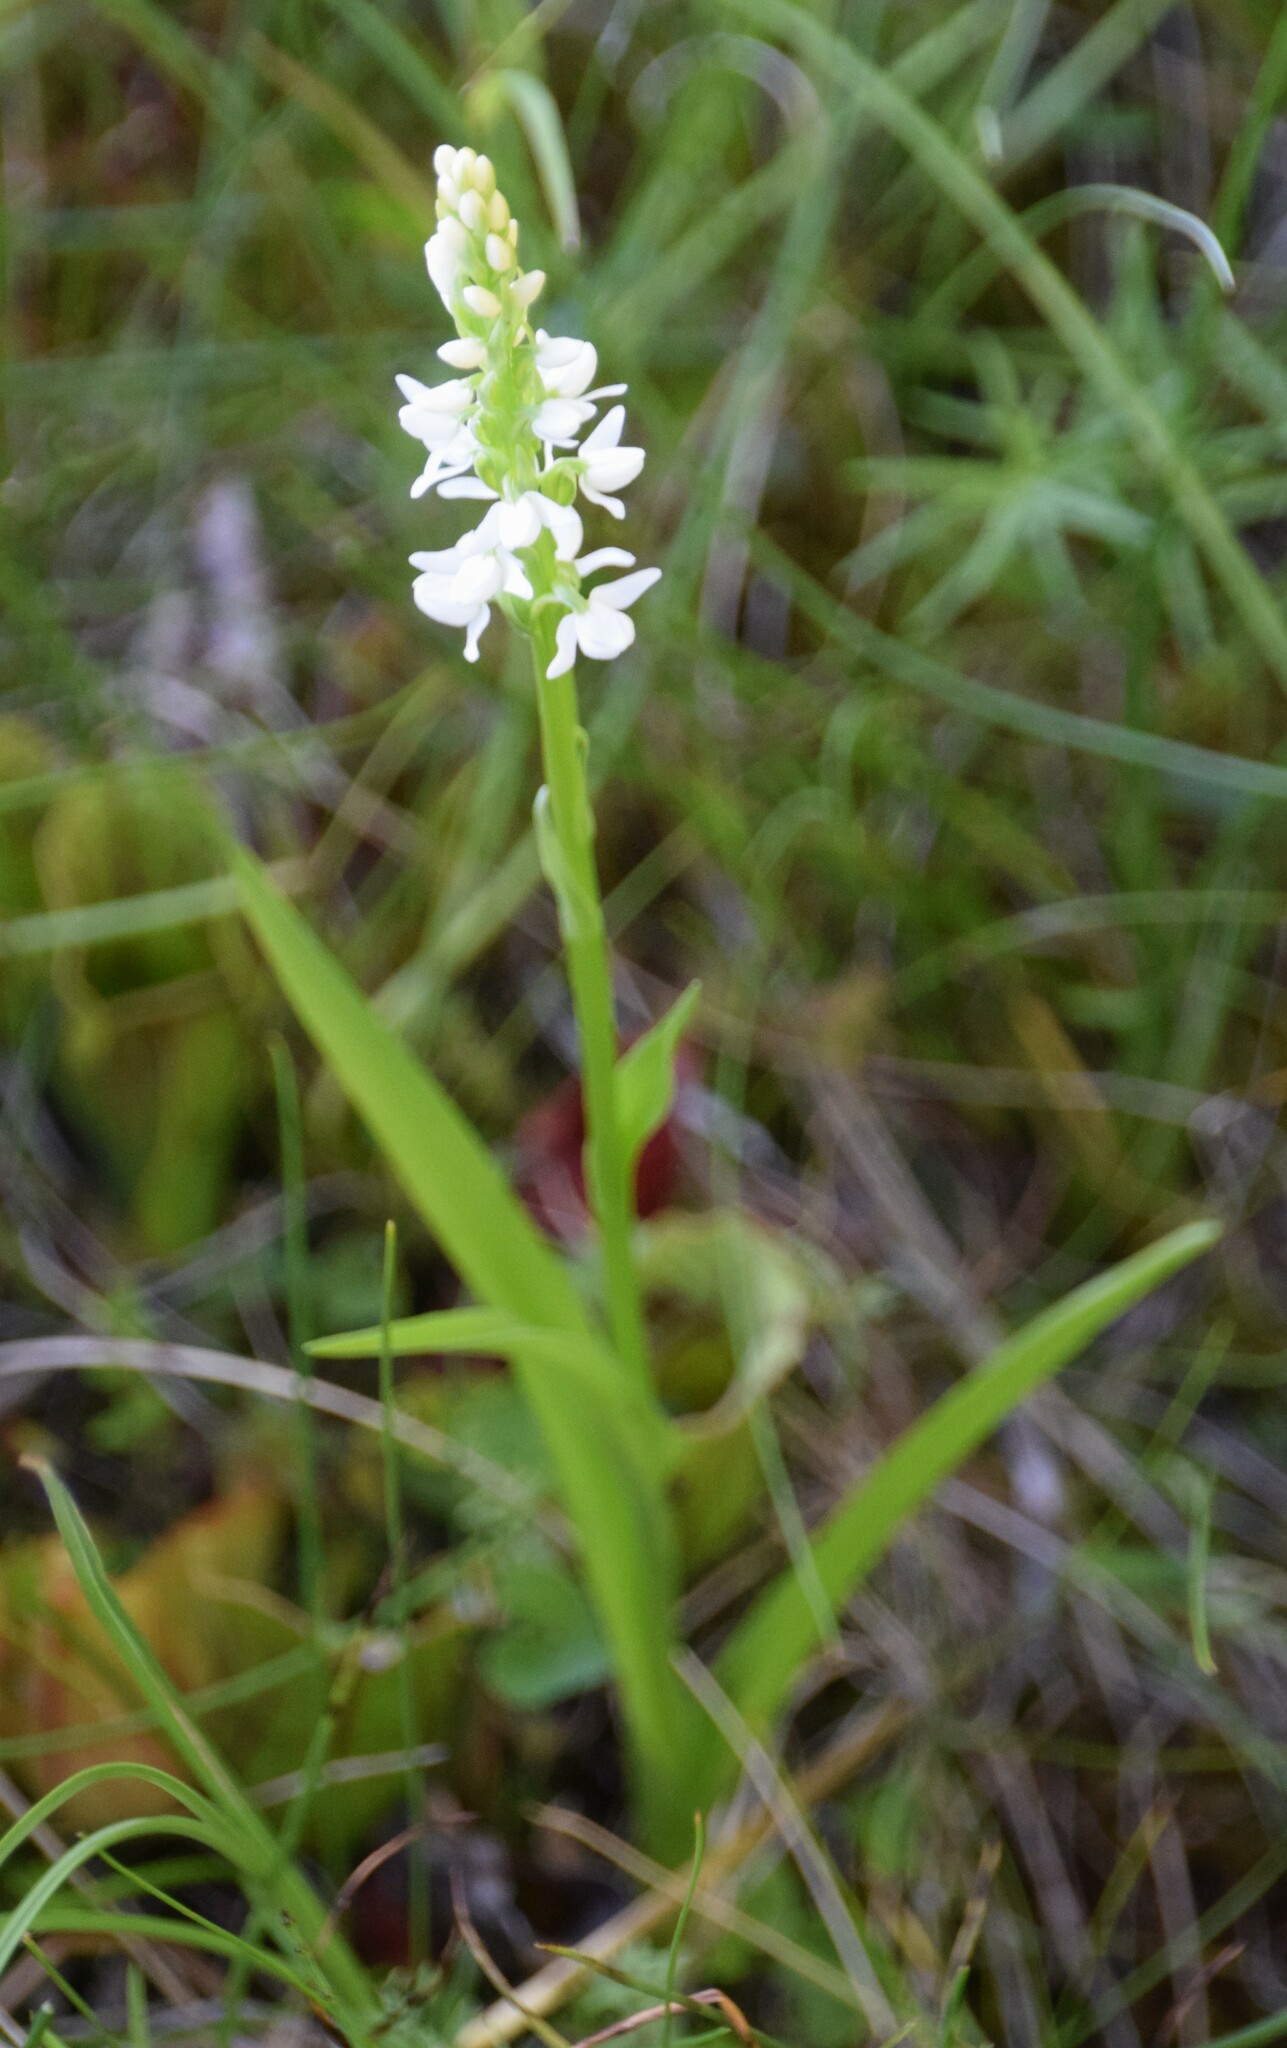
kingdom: Plantae
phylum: Tracheophyta
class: Liliopsida
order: Asparagales
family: Orchidaceae
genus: Platanthera
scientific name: Platanthera dilatata
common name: Bog candles
